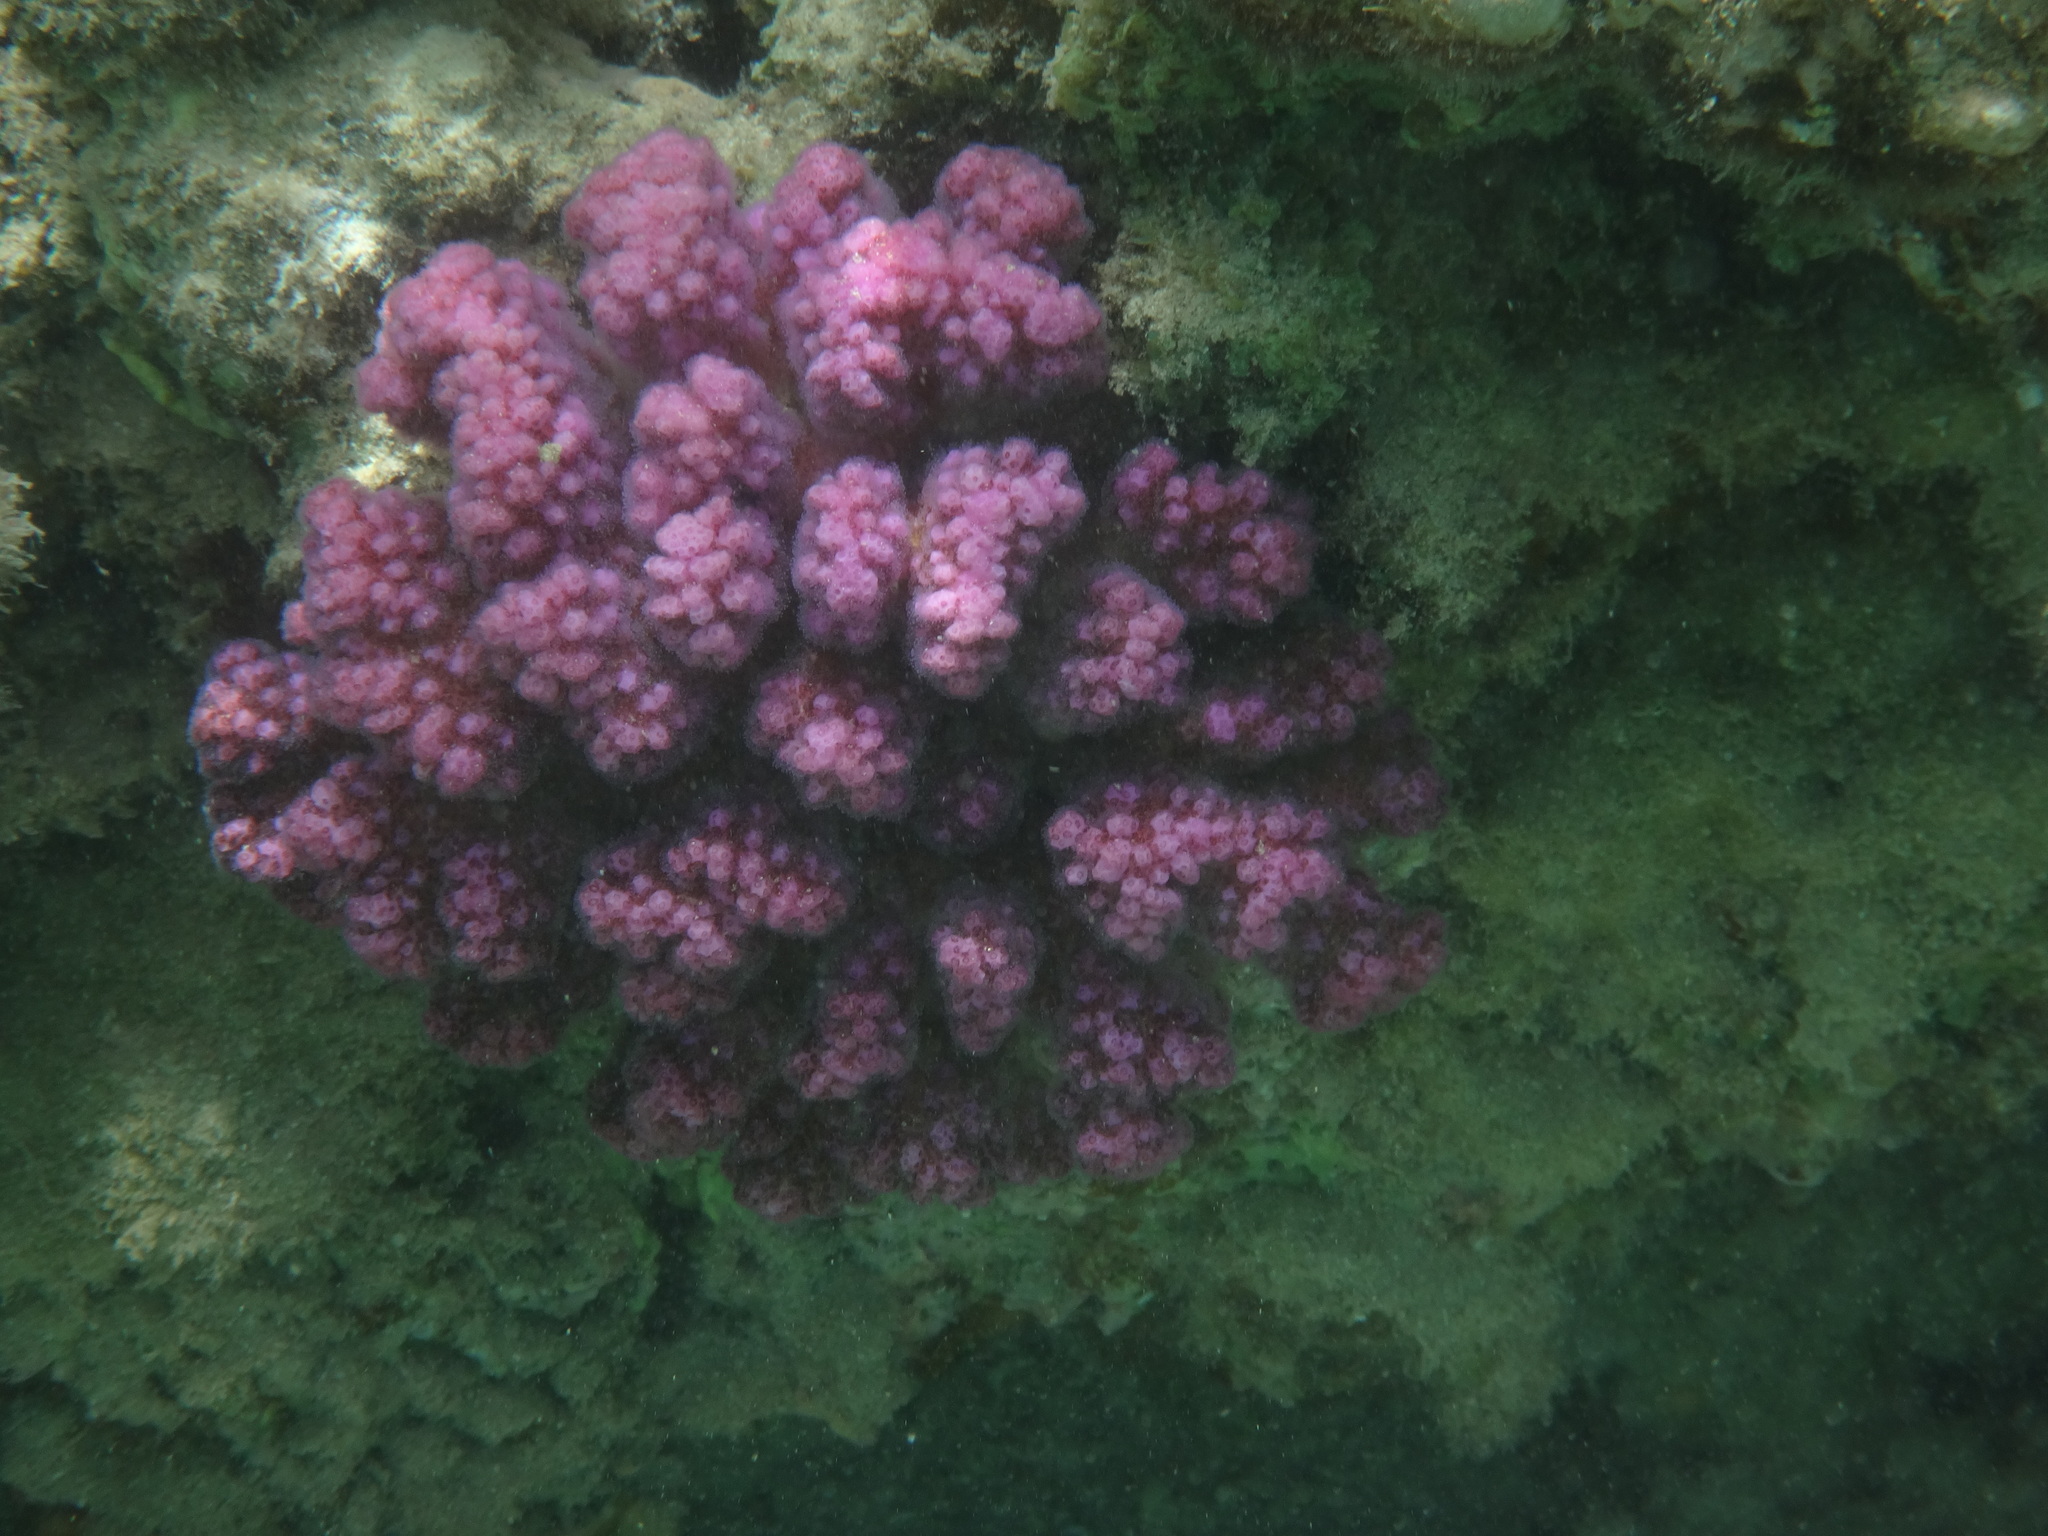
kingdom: Animalia
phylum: Cnidaria
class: Anthozoa
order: Scleractinia
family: Pocilloporidae
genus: Pocillopora
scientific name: Pocillopora verrucosa
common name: Cauliflower coral
